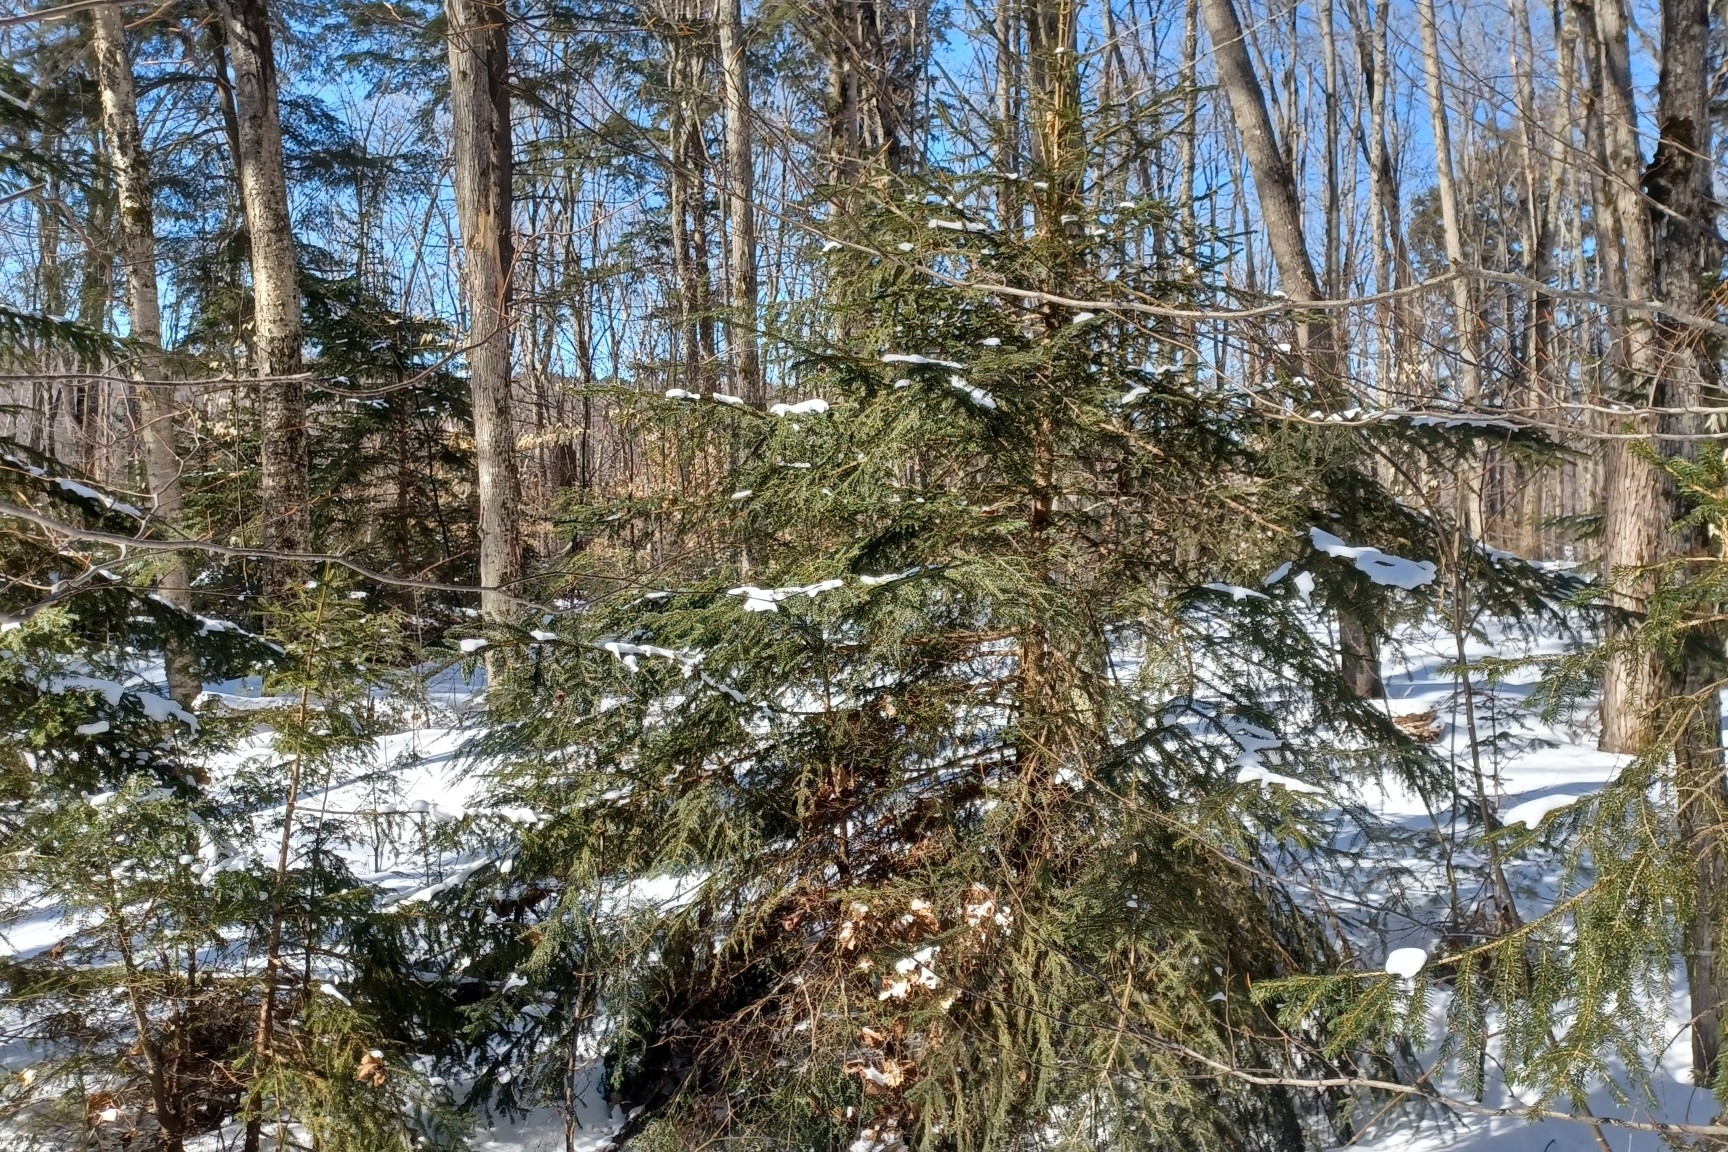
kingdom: Plantae
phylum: Tracheophyta
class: Pinopsida
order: Pinales
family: Pinaceae
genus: Picea
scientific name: Picea rubens
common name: Red spruce
